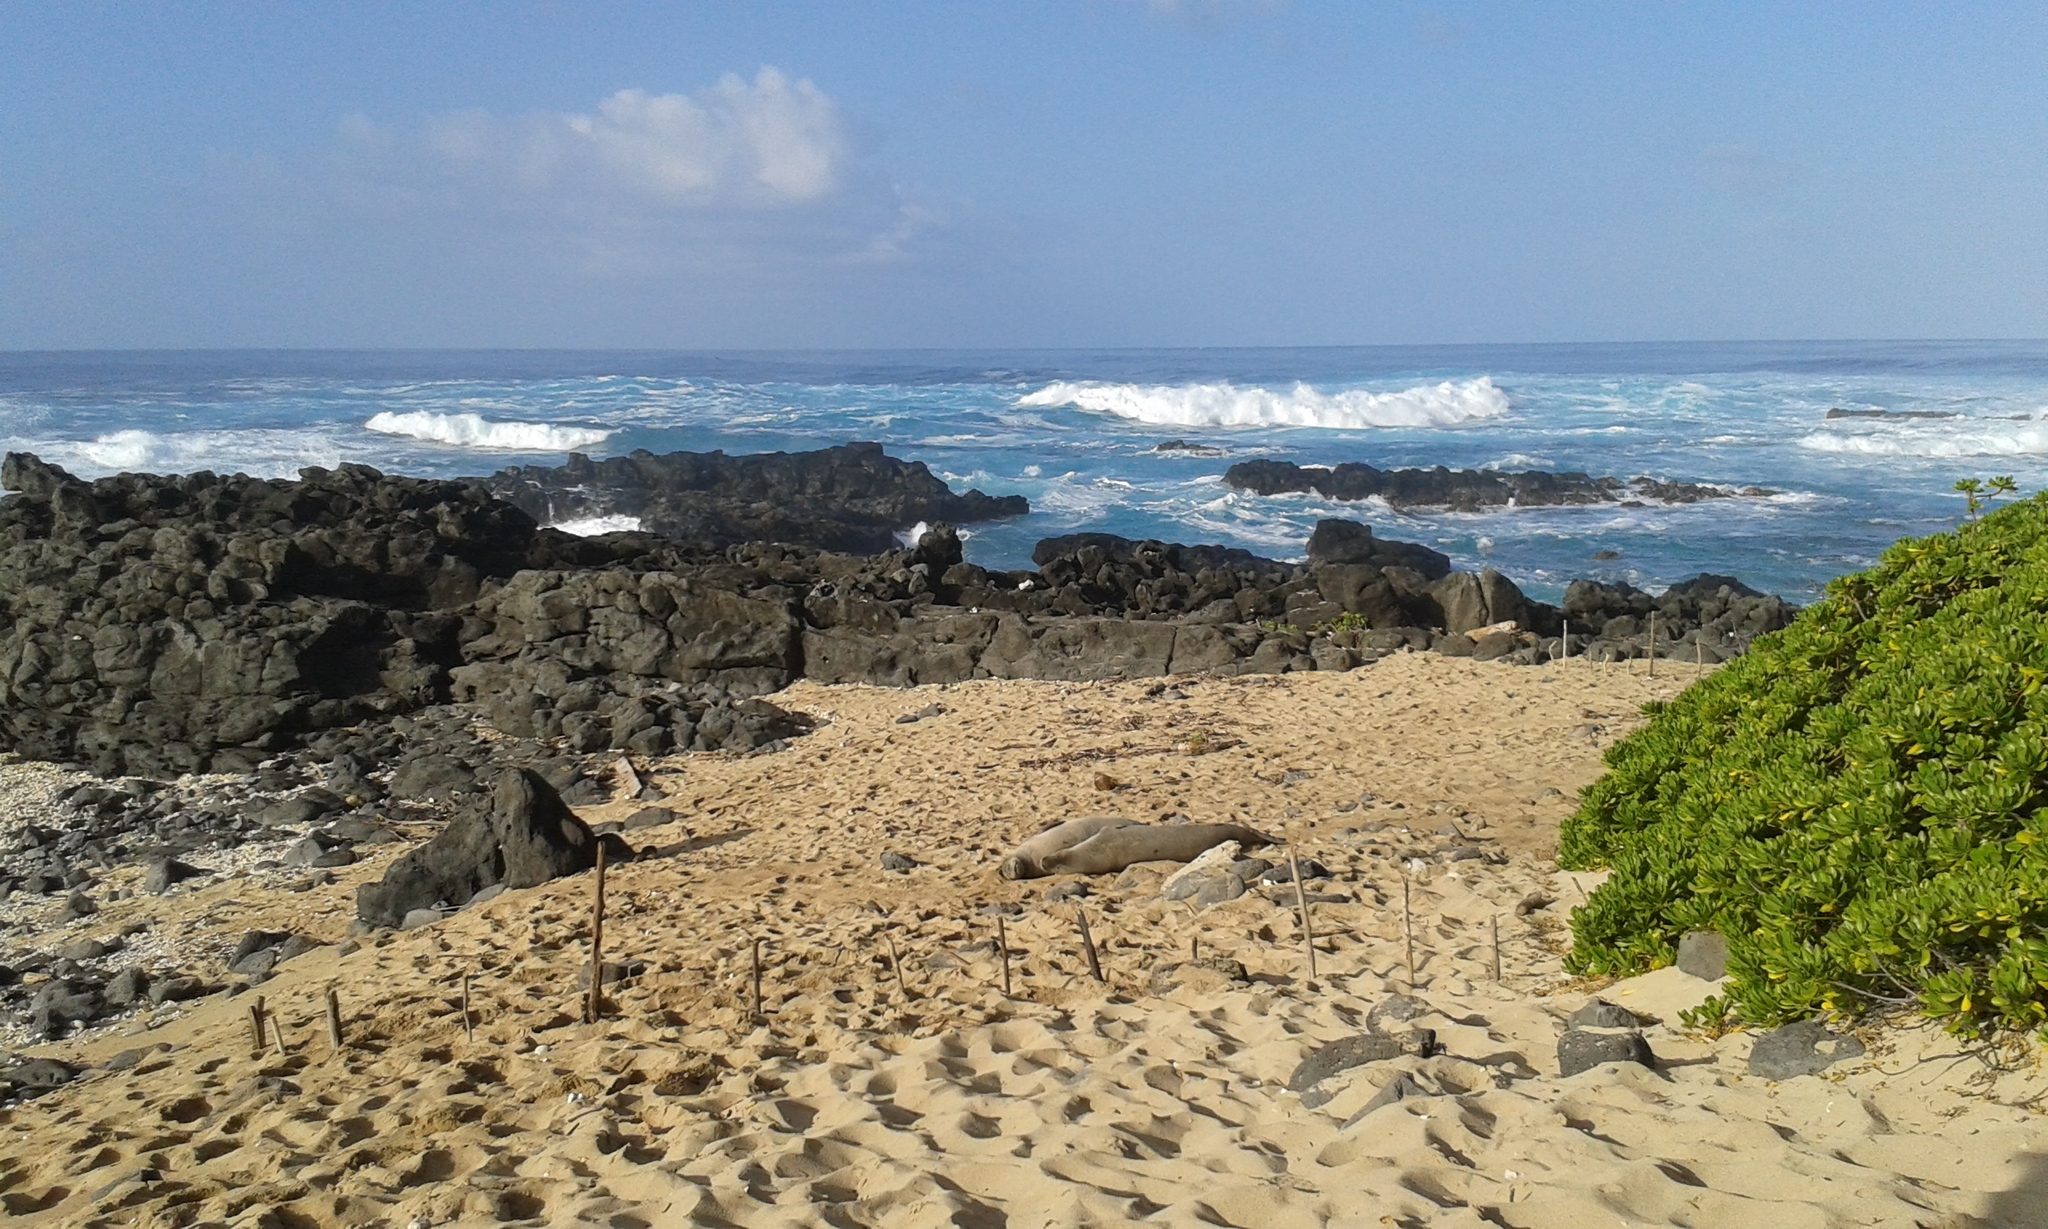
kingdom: Animalia
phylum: Chordata
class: Mammalia
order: Carnivora
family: Phocidae
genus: Neomonachus
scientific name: Neomonachus schauinslandi
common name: Hawaiian monk seal
